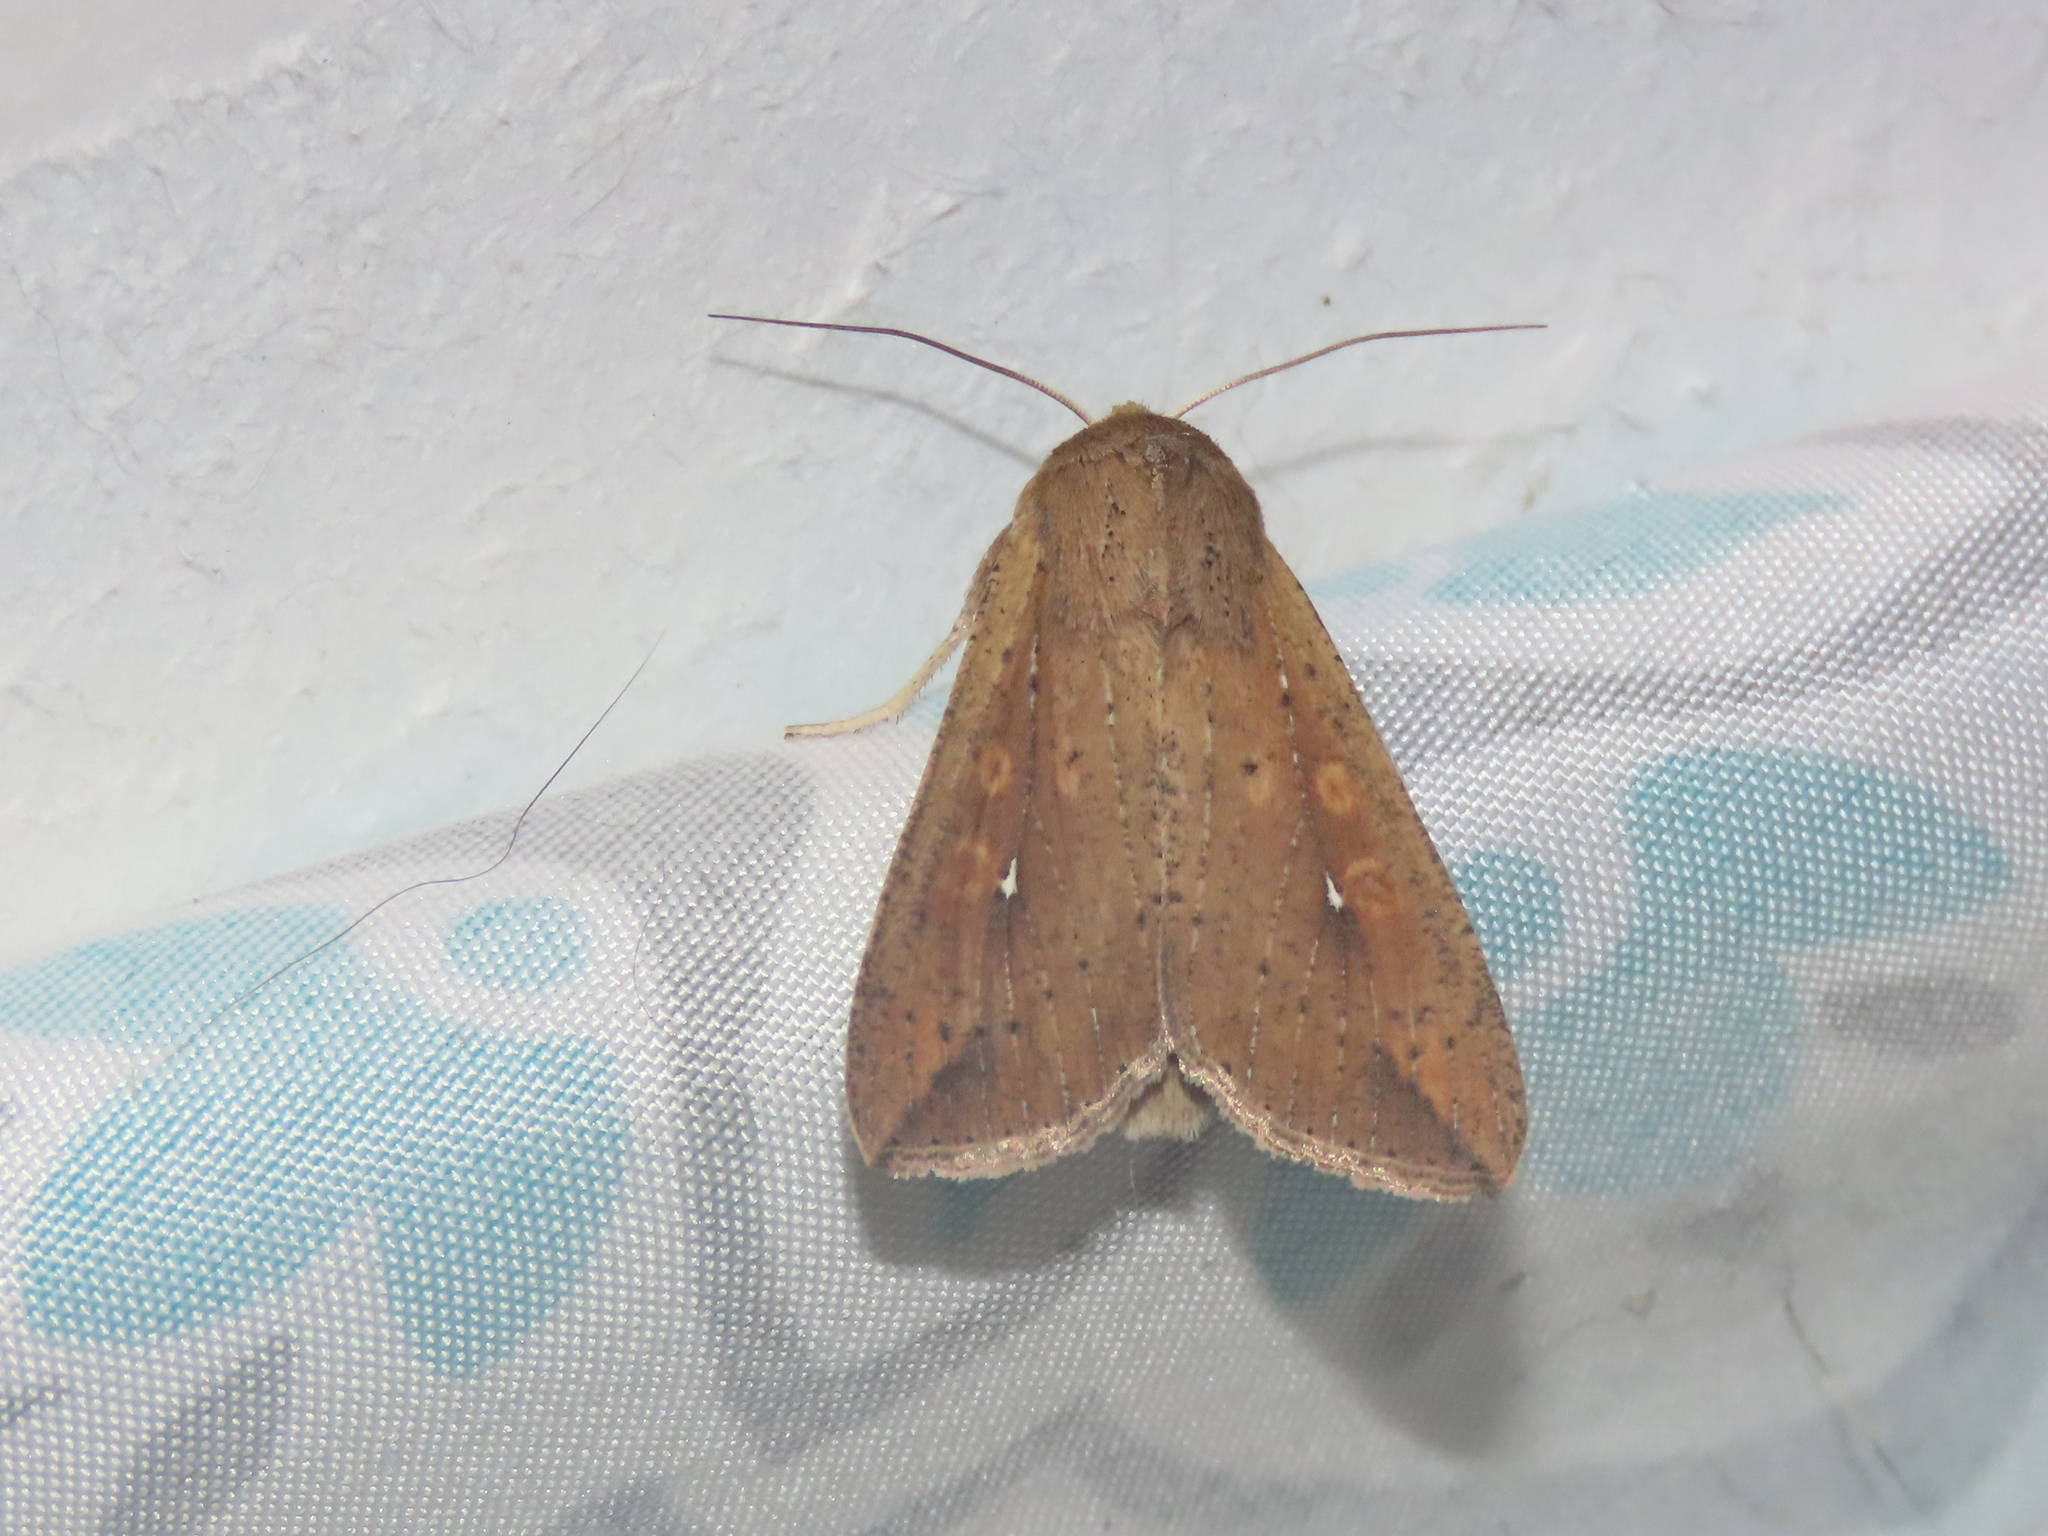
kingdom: Animalia
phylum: Arthropoda
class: Insecta
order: Lepidoptera
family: Noctuidae
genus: Mythimna
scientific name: Mythimna unipuncta
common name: White-speck
